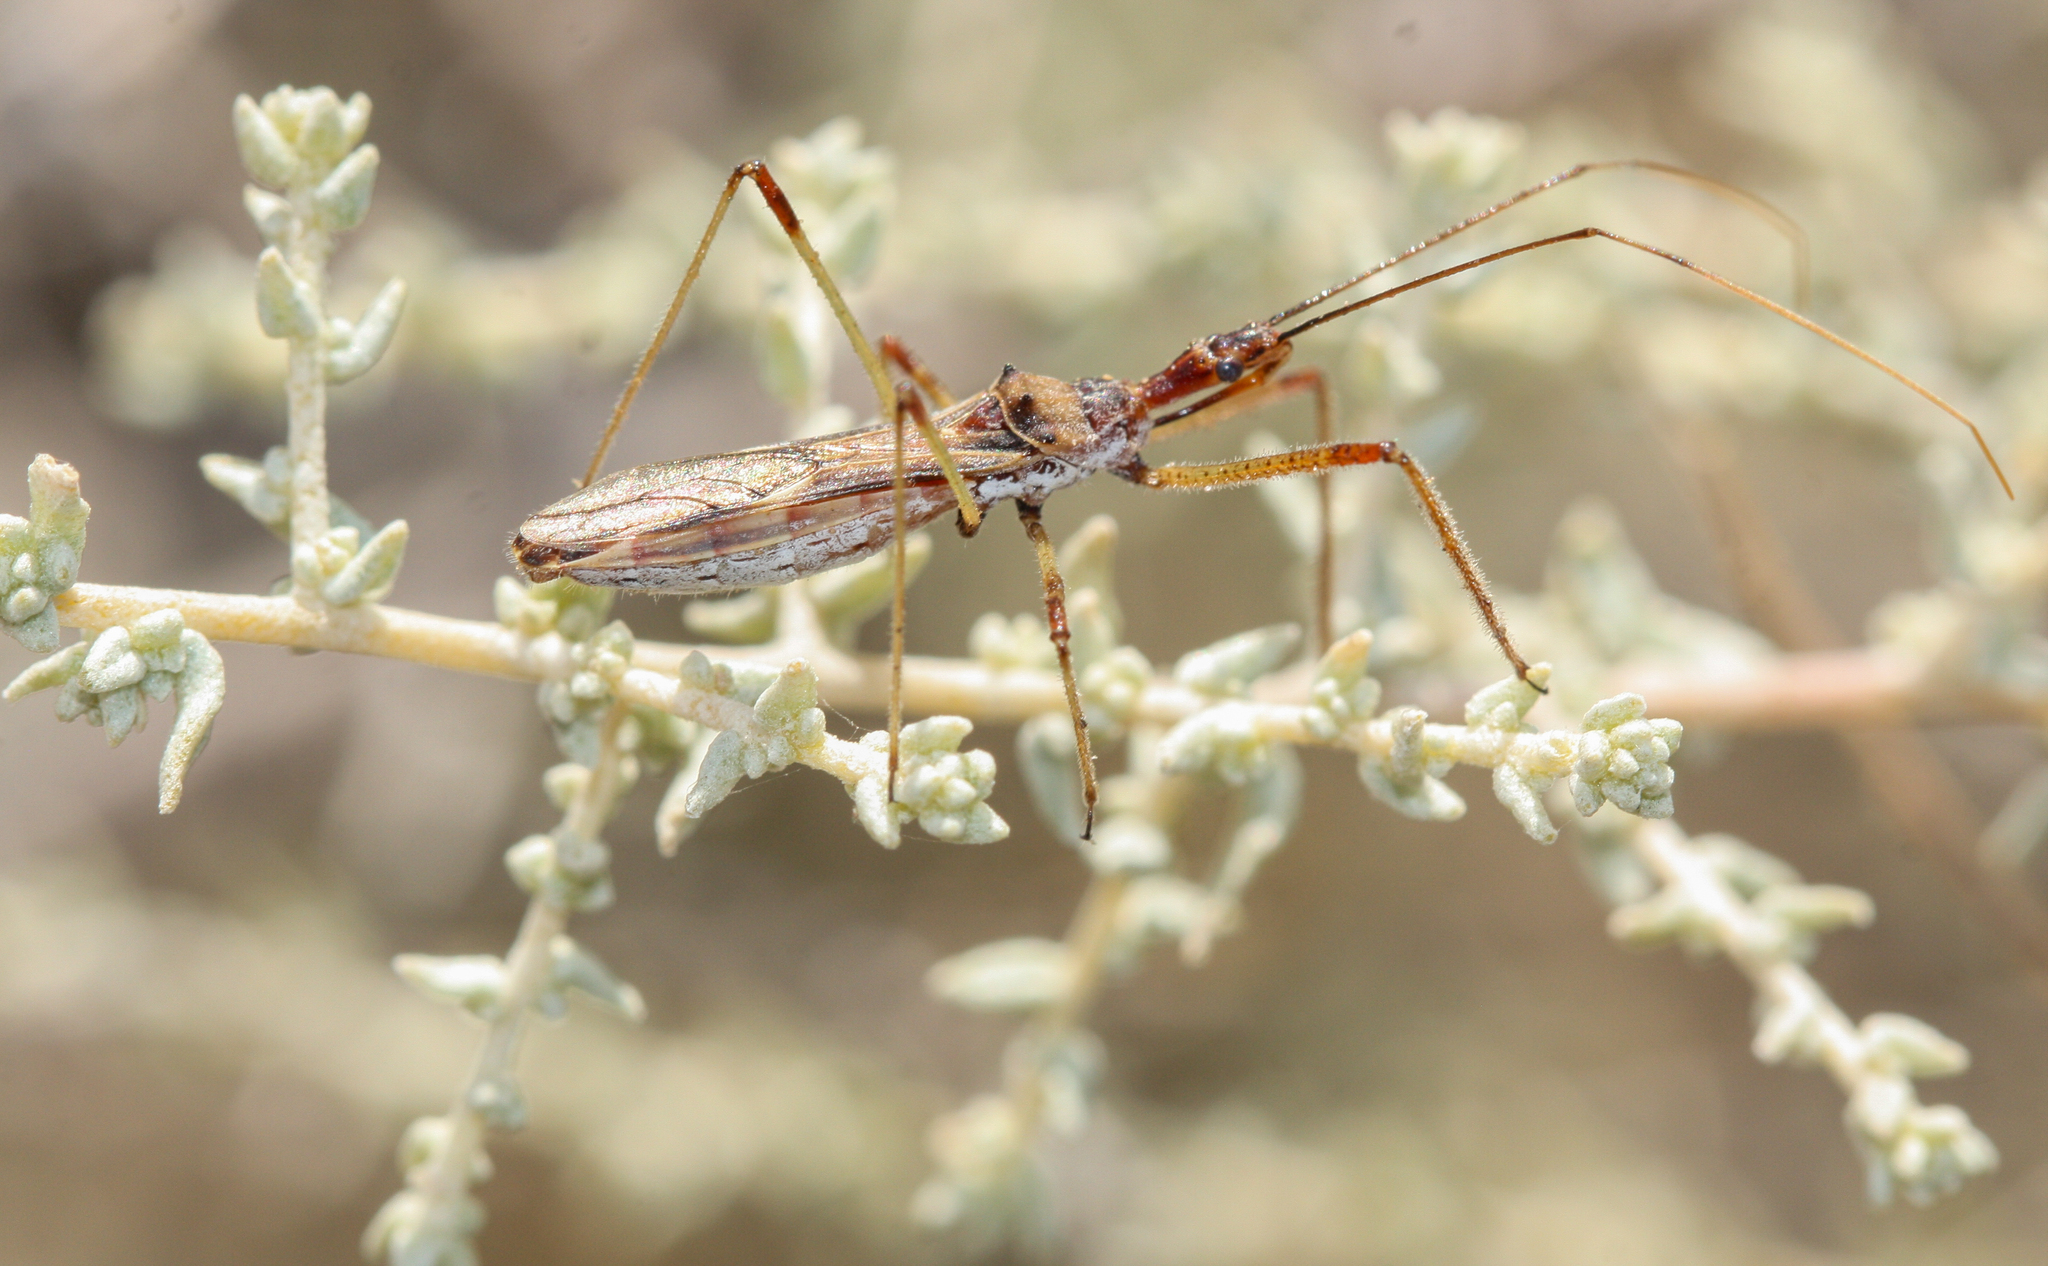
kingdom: Animalia
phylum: Arthropoda
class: Insecta
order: Hemiptera
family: Reduviidae
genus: Zelus
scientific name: Zelus tetracanthus
